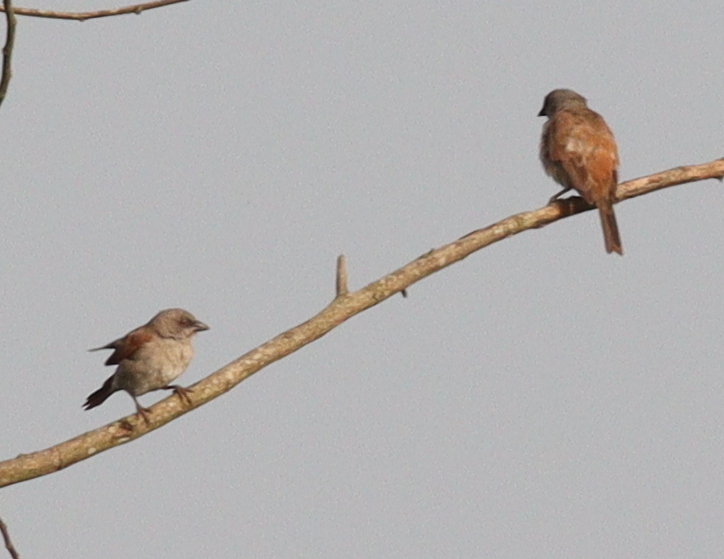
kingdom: Animalia
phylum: Chordata
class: Aves
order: Passeriformes
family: Passeridae
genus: Passer
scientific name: Passer griseus
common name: Northern grey-headed sparrow
